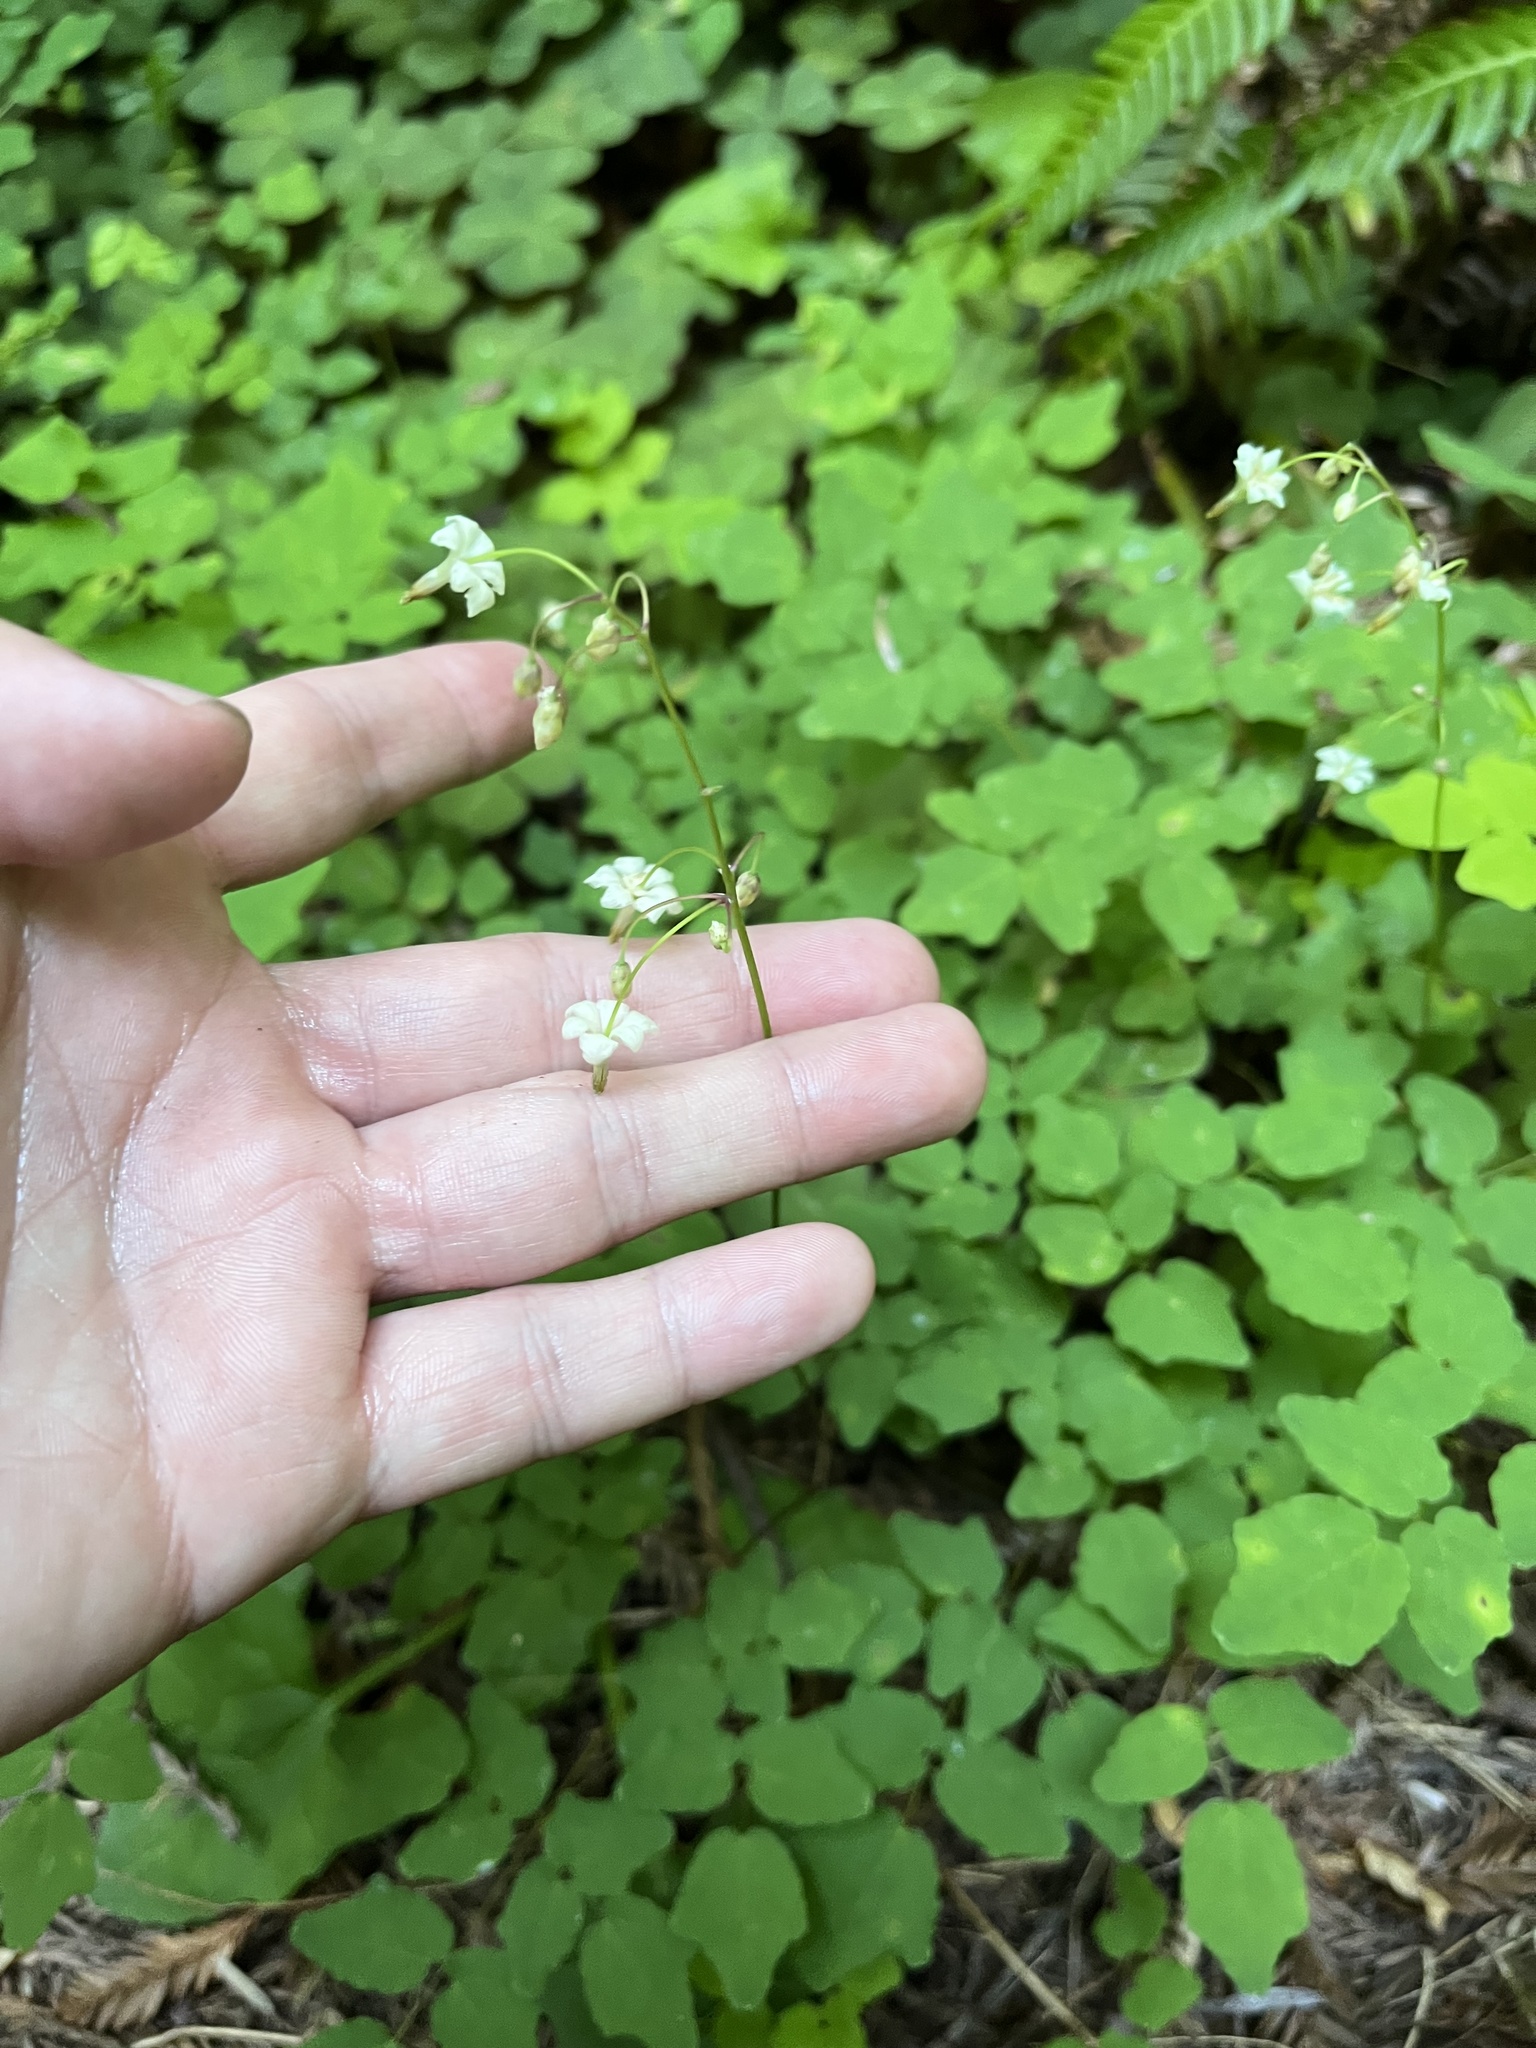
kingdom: Plantae
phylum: Tracheophyta
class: Magnoliopsida
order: Ranunculales
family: Berberidaceae
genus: Vancouveria
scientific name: Vancouveria hexandra
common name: Northern inside-out-flower
